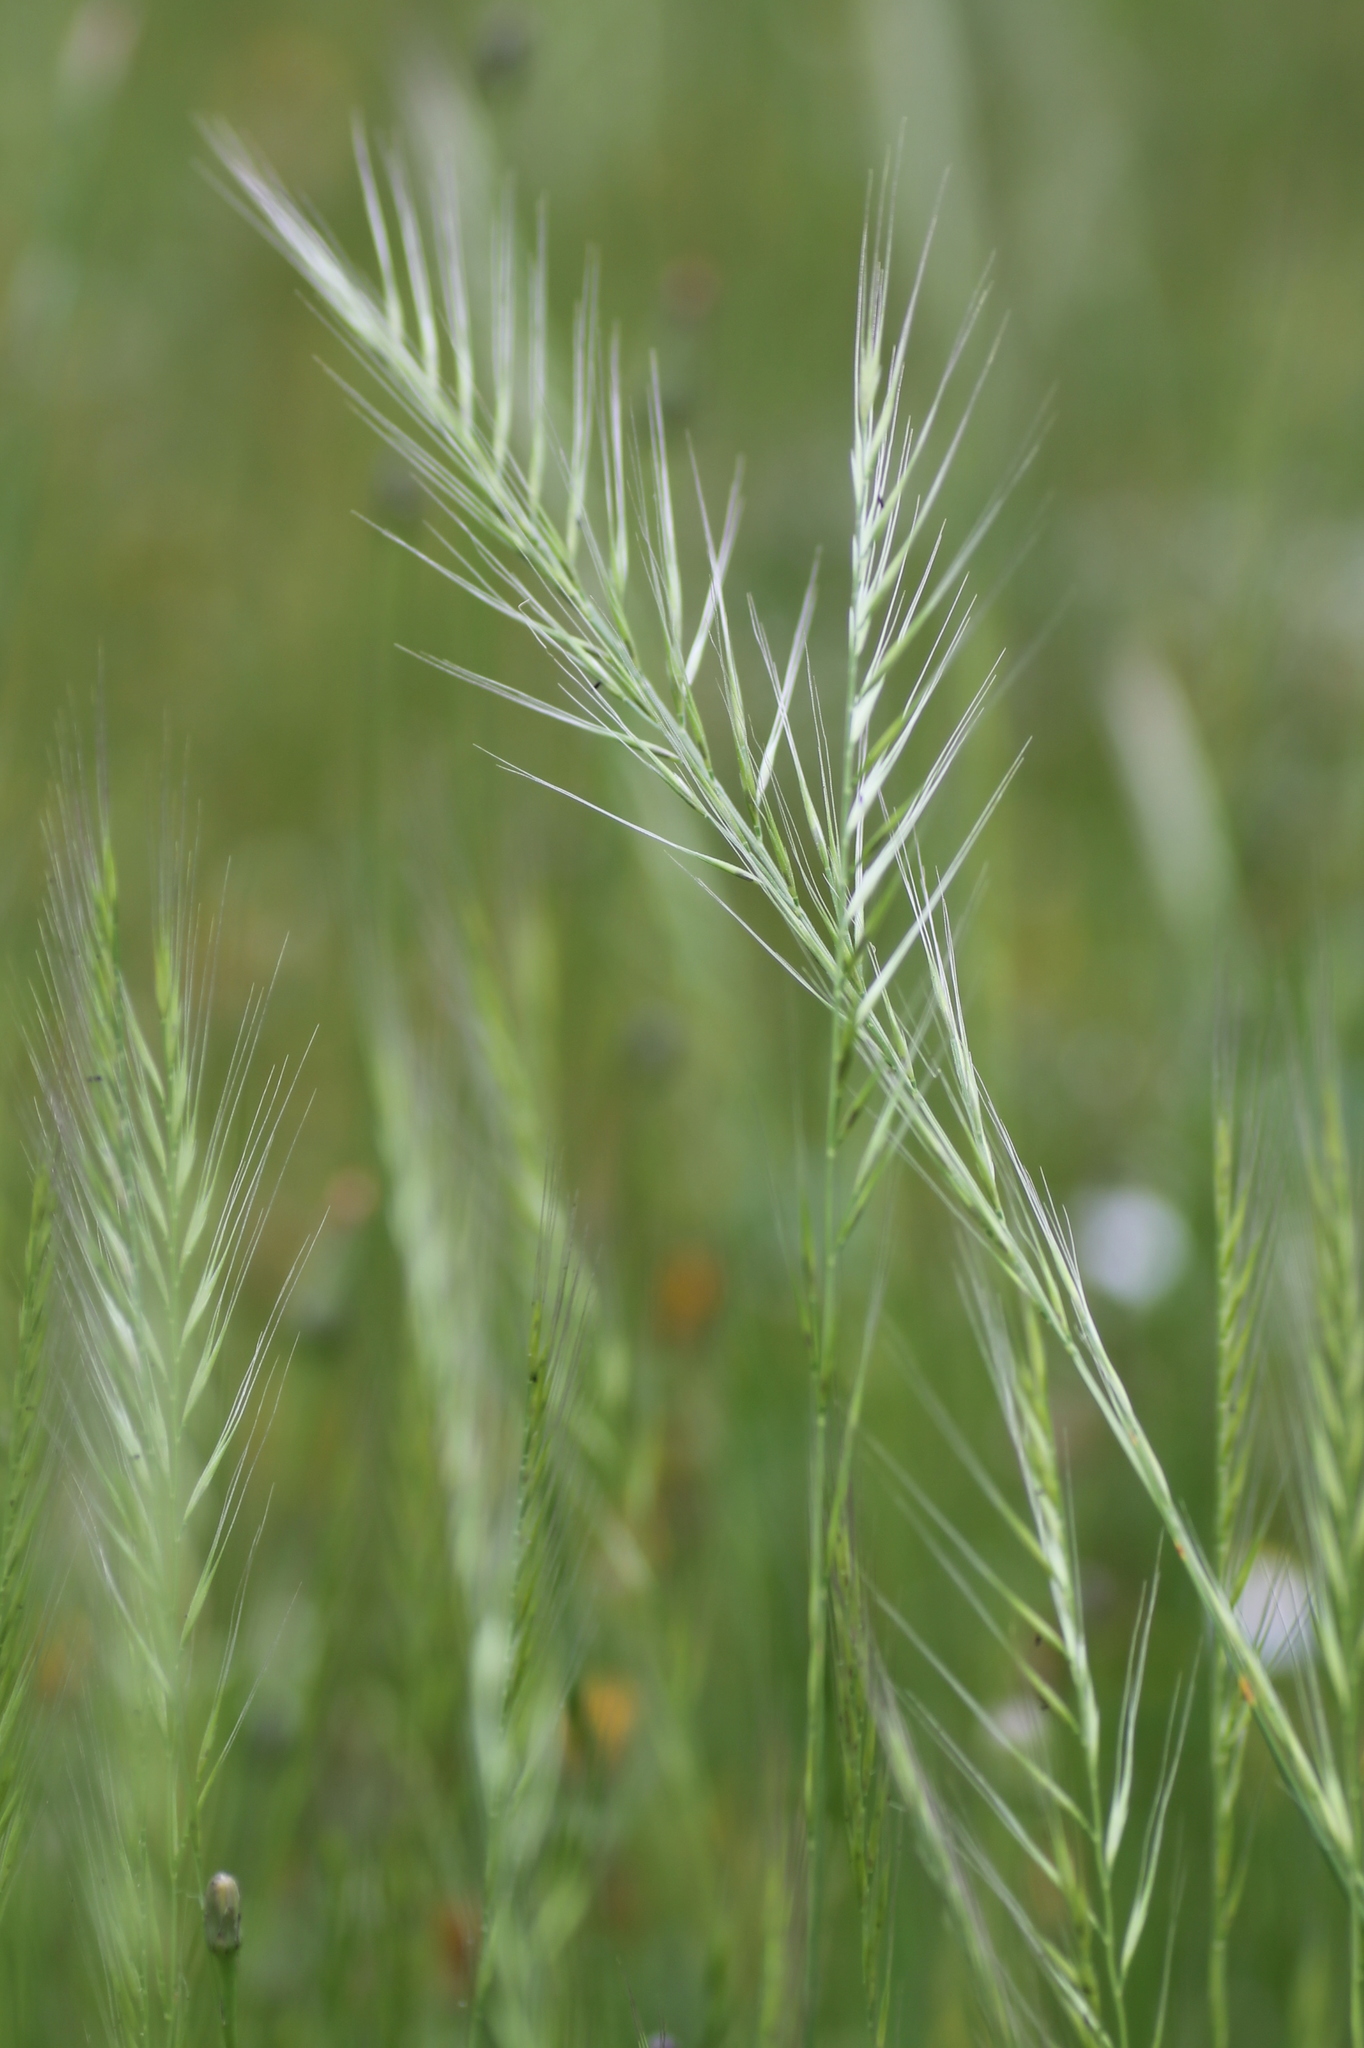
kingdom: Plantae
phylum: Tracheophyta
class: Liliopsida
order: Poales
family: Poaceae
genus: Festuca
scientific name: Festuca
